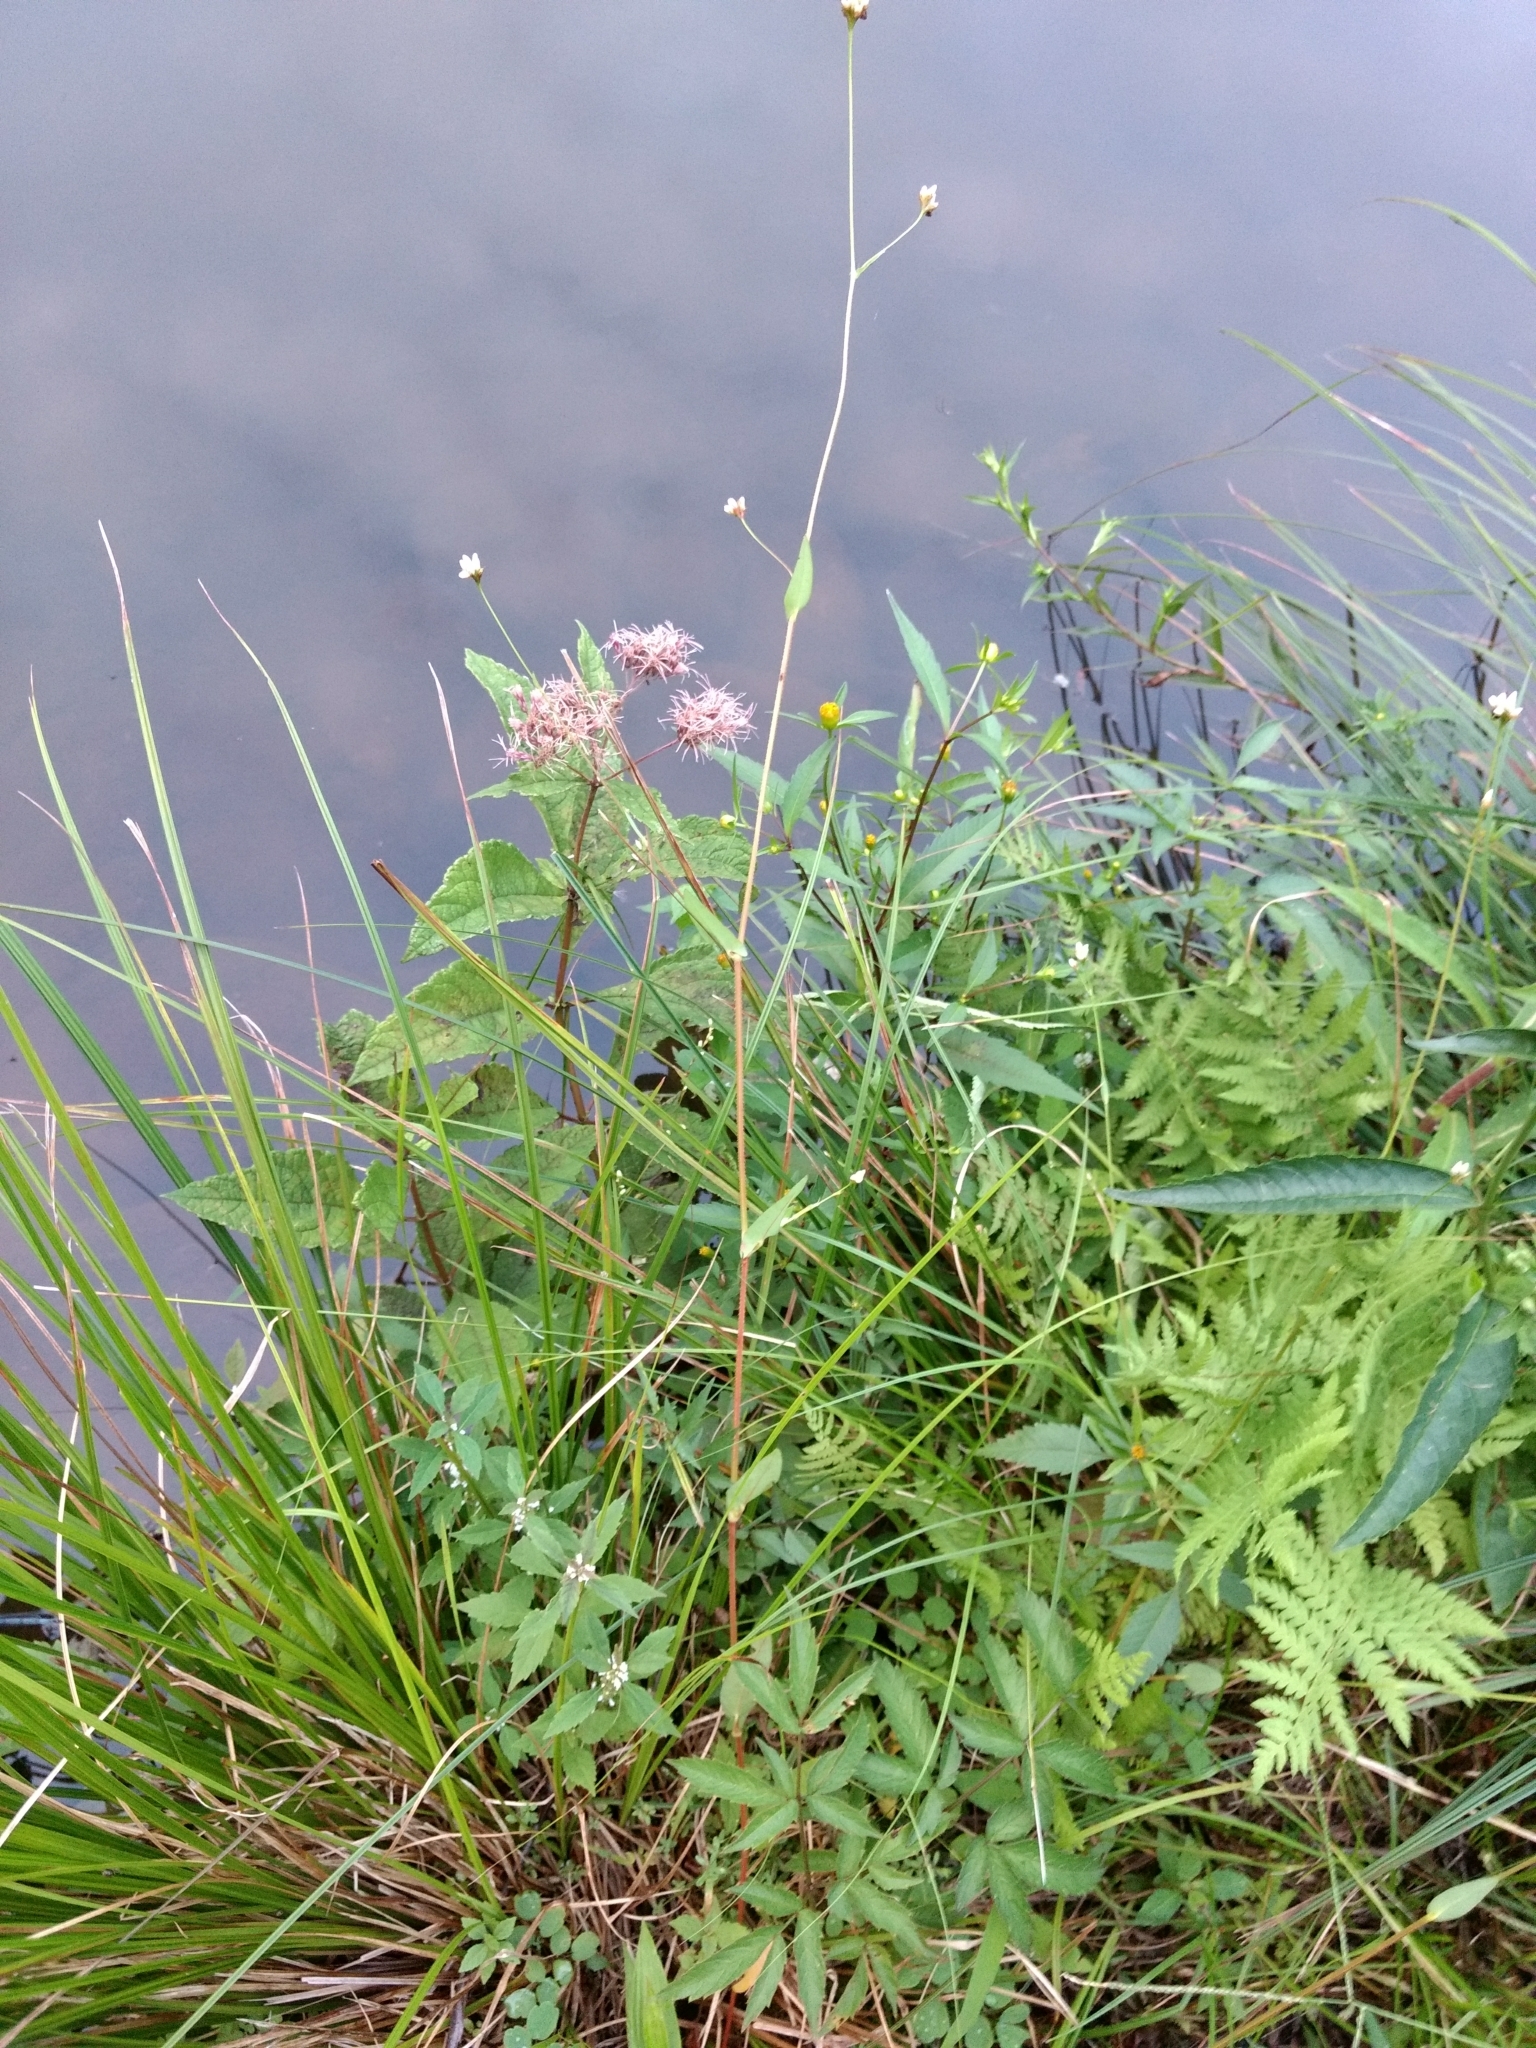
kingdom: Plantae
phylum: Tracheophyta
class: Magnoliopsida
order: Caryophyllales
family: Polygonaceae
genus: Persicaria
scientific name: Persicaria sagittata
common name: American tearthumb
